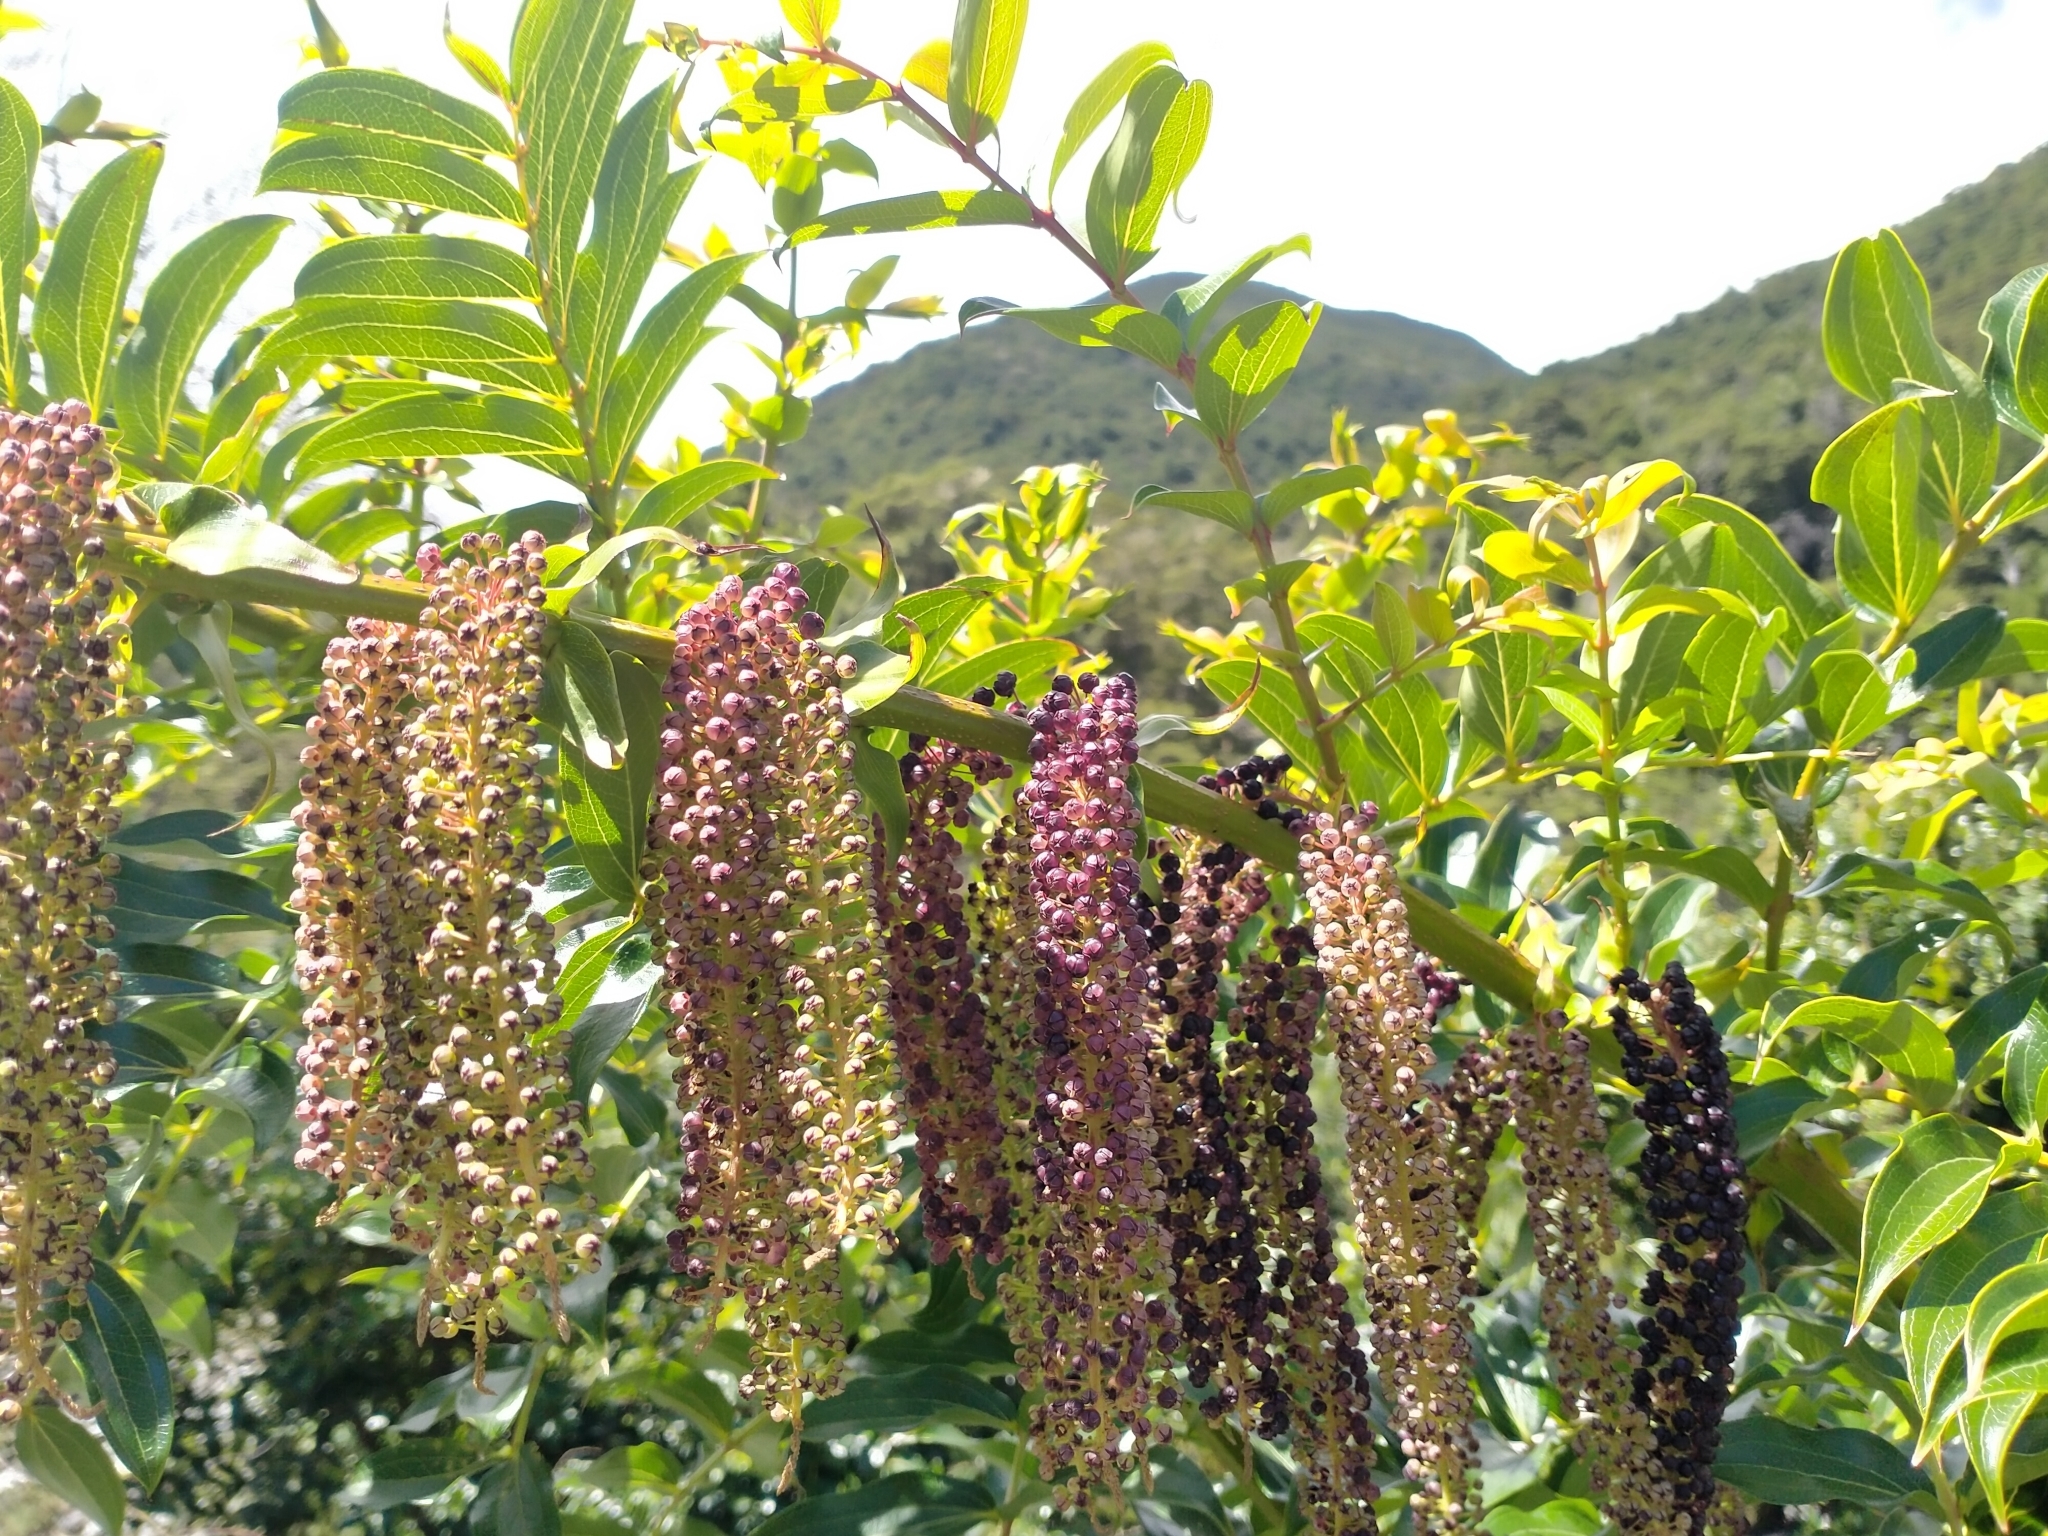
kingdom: Plantae
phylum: Tracheophyta
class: Magnoliopsida
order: Cucurbitales
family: Coriariaceae
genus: Coriaria
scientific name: Coriaria arborea
